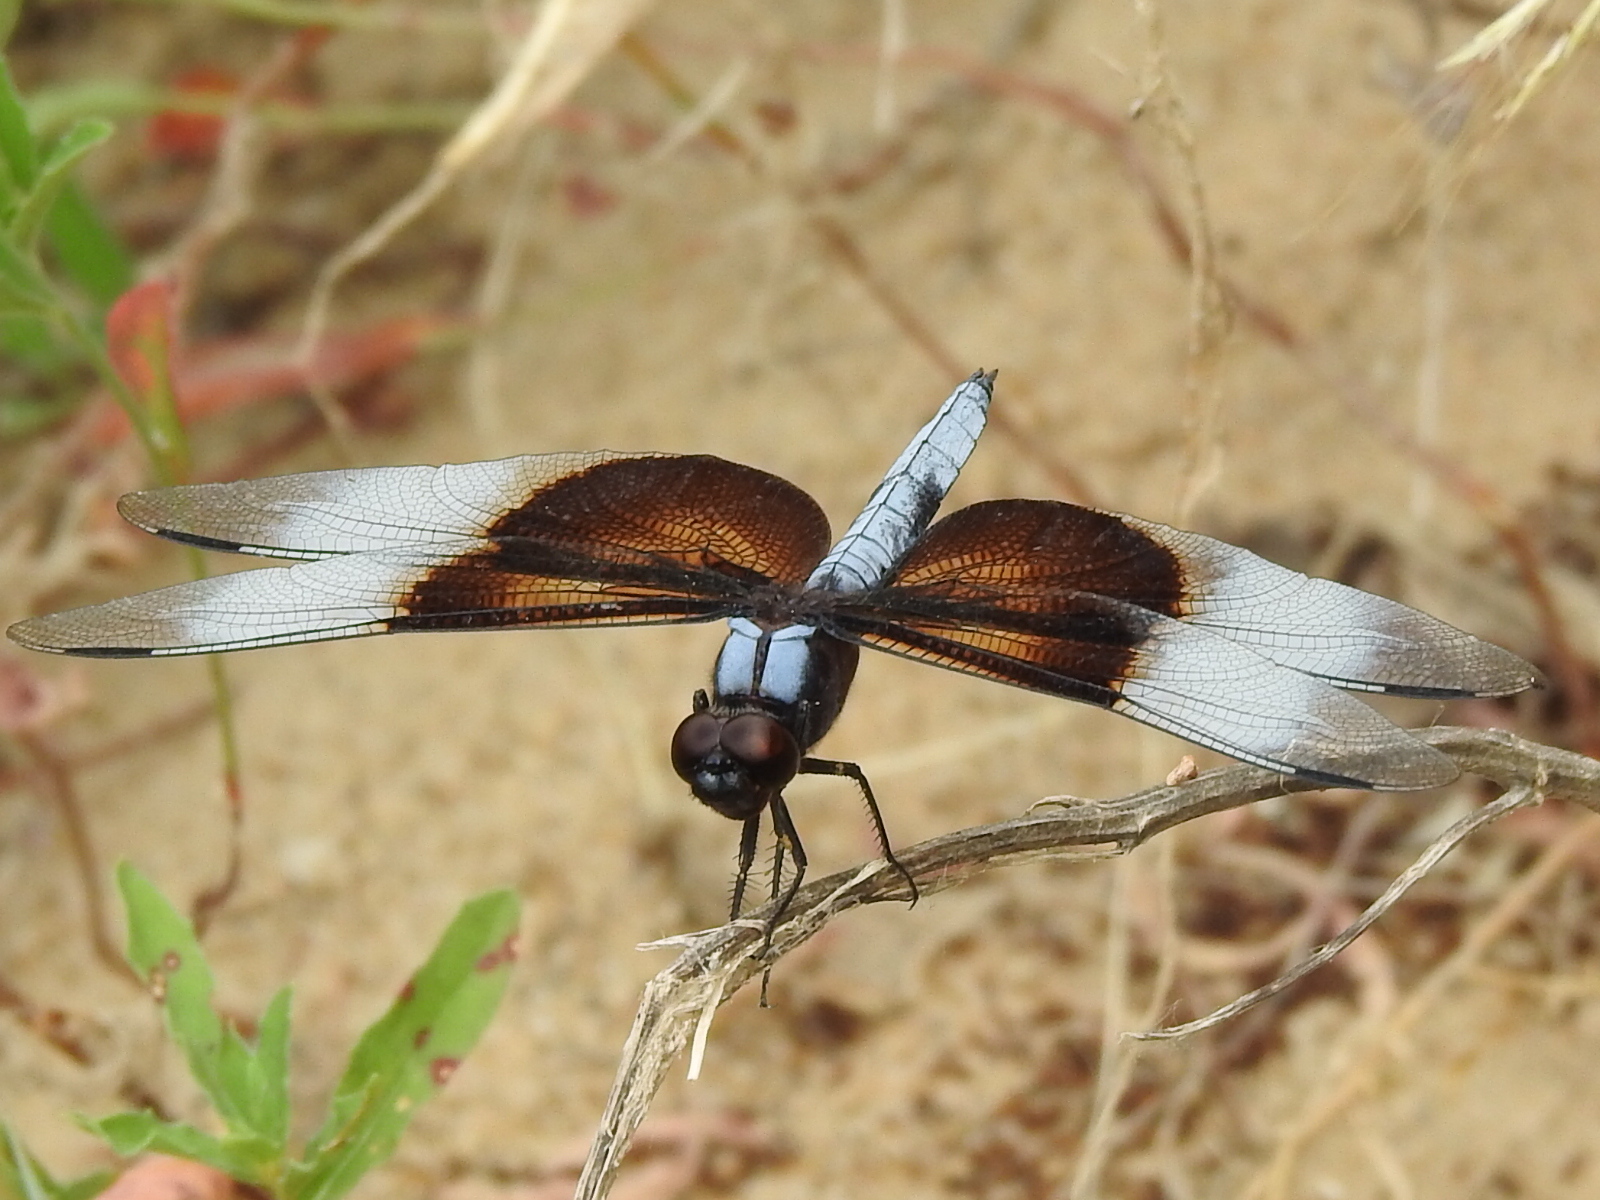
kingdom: Animalia
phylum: Arthropoda
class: Insecta
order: Odonata
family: Libellulidae
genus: Libellula
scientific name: Libellula luctuosa
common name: Widow skimmer
